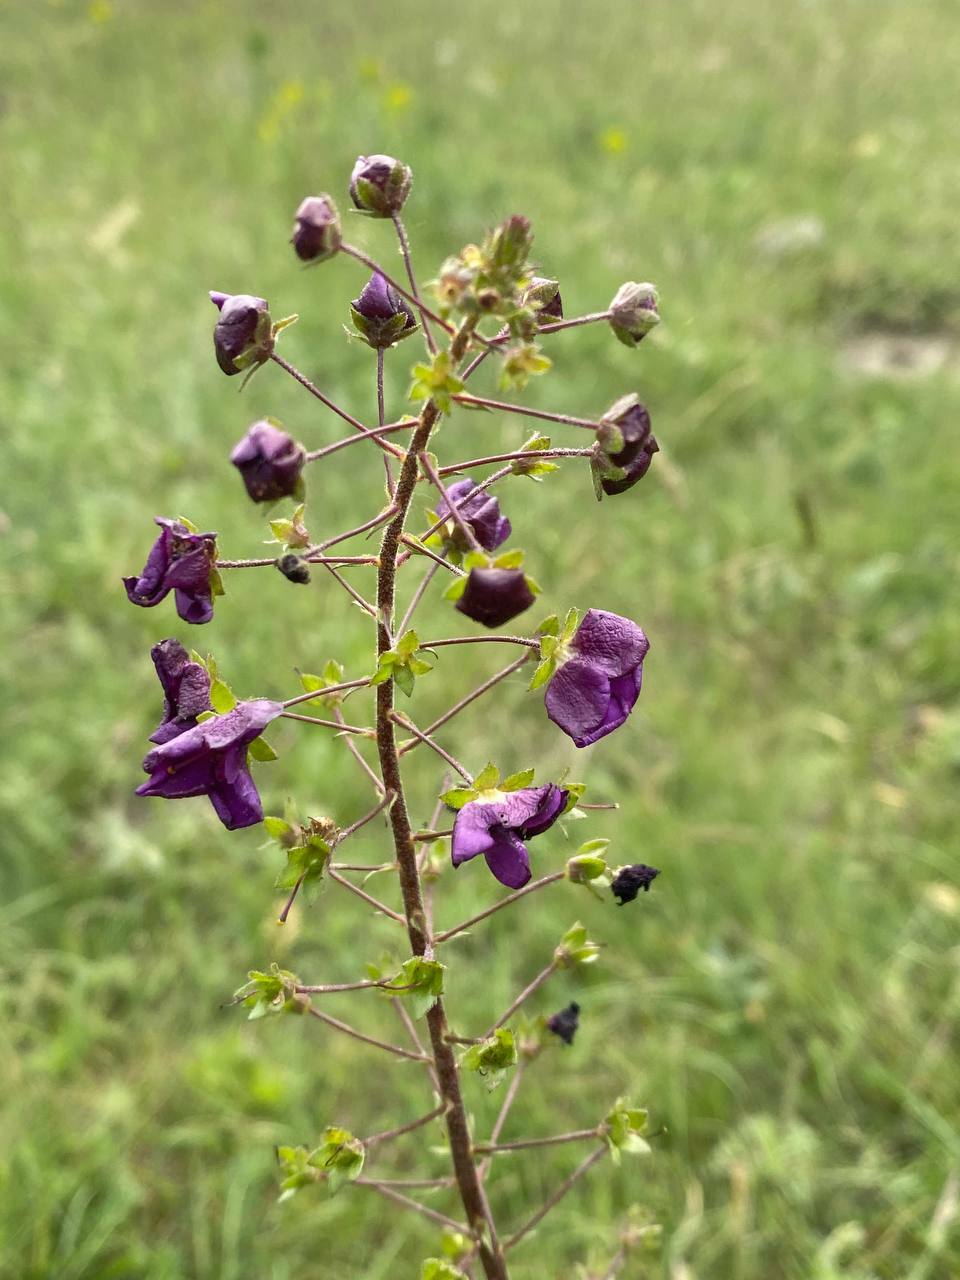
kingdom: Plantae
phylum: Tracheophyta
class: Magnoliopsida
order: Lamiales
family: Scrophulariaceae
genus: Verbascum
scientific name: Verbascum phoeniceum
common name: Purple mullein
